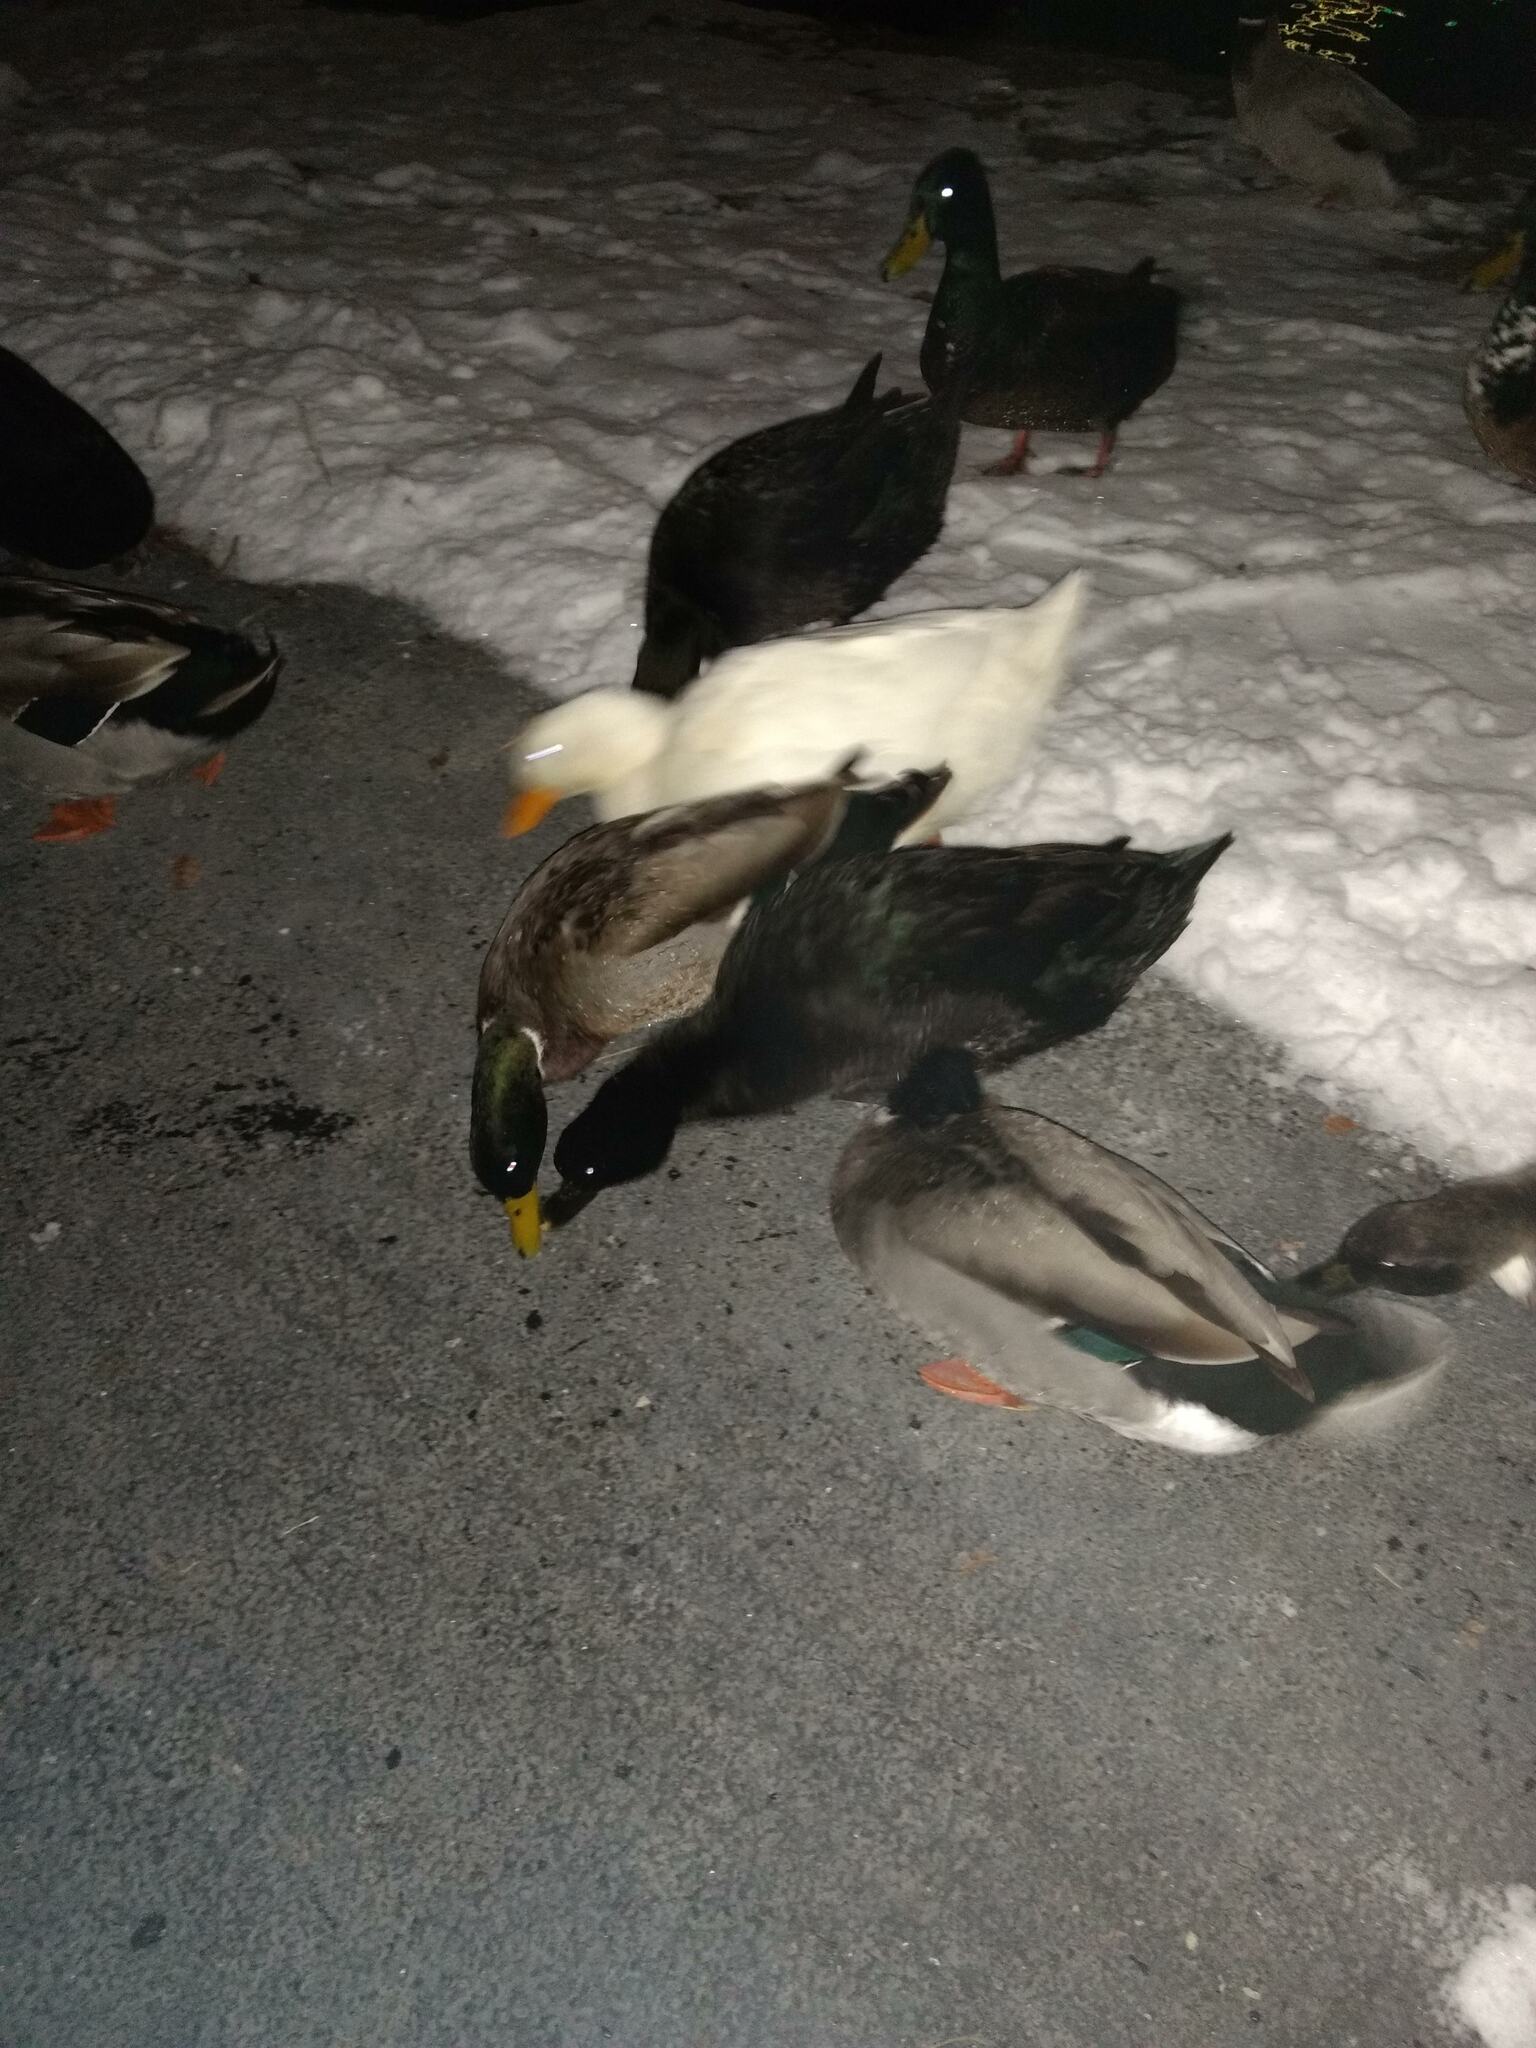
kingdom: Animalia
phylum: Chordata
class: Aves
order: Anseriformes
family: Anatidae
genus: Anas
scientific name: Anas platyrhynchos
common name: Mallard
